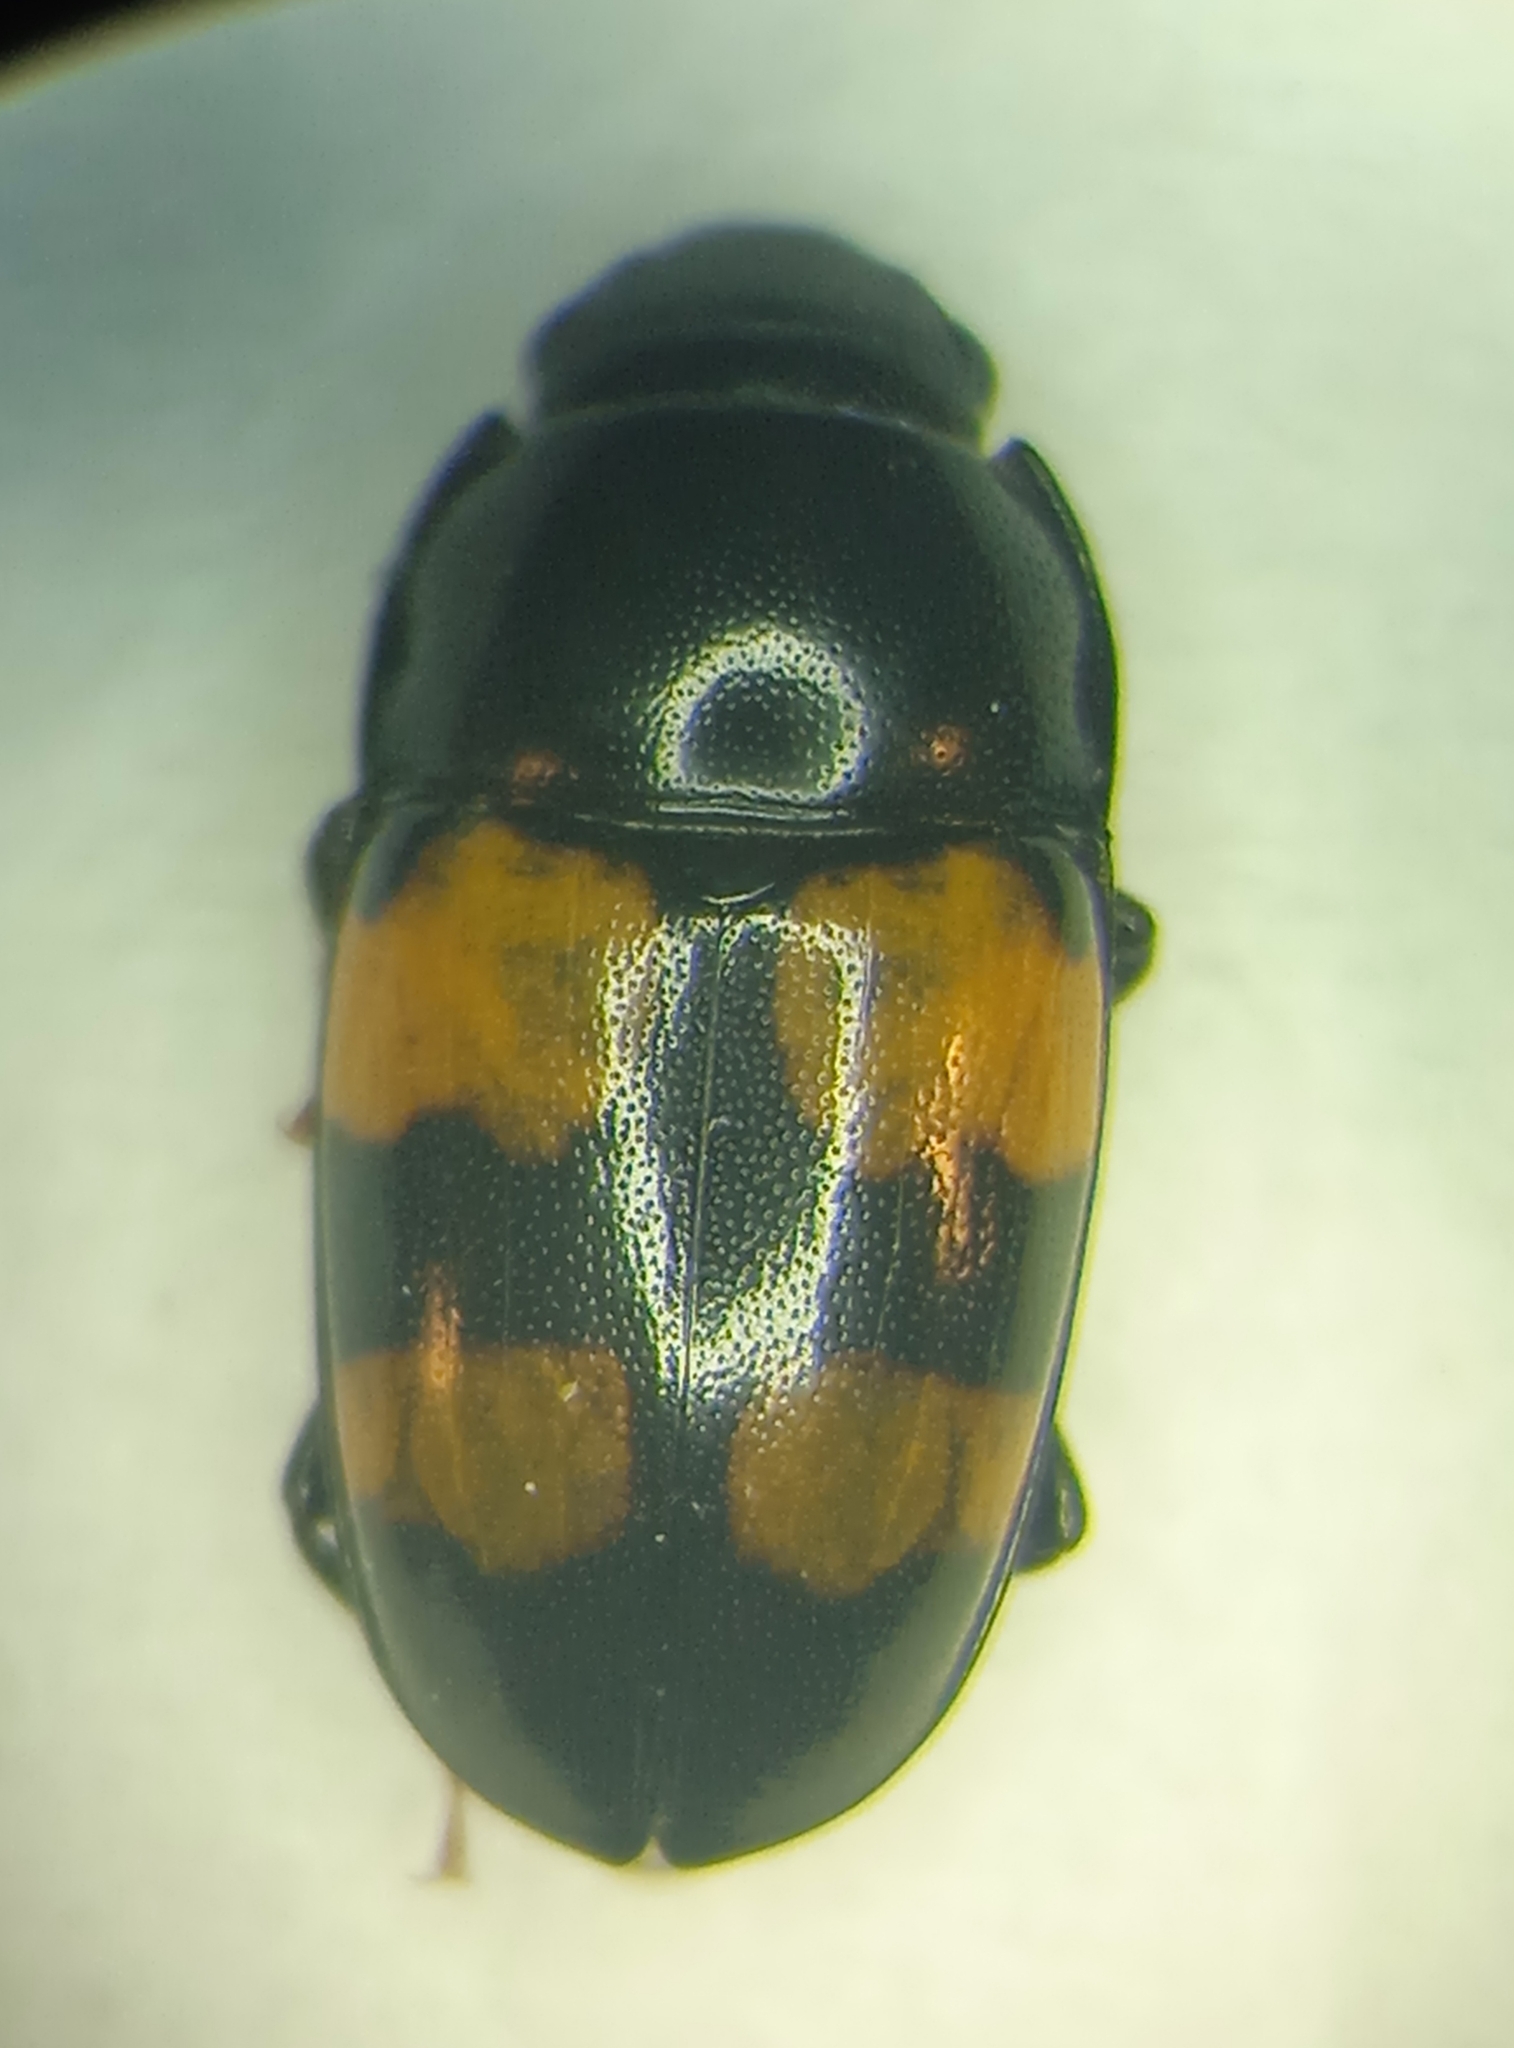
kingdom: Animalia
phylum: Arthropoda
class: Insecta
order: Coleoptera
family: Nitidulidae
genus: Glischrochilus
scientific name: Glischrochilus grandis
